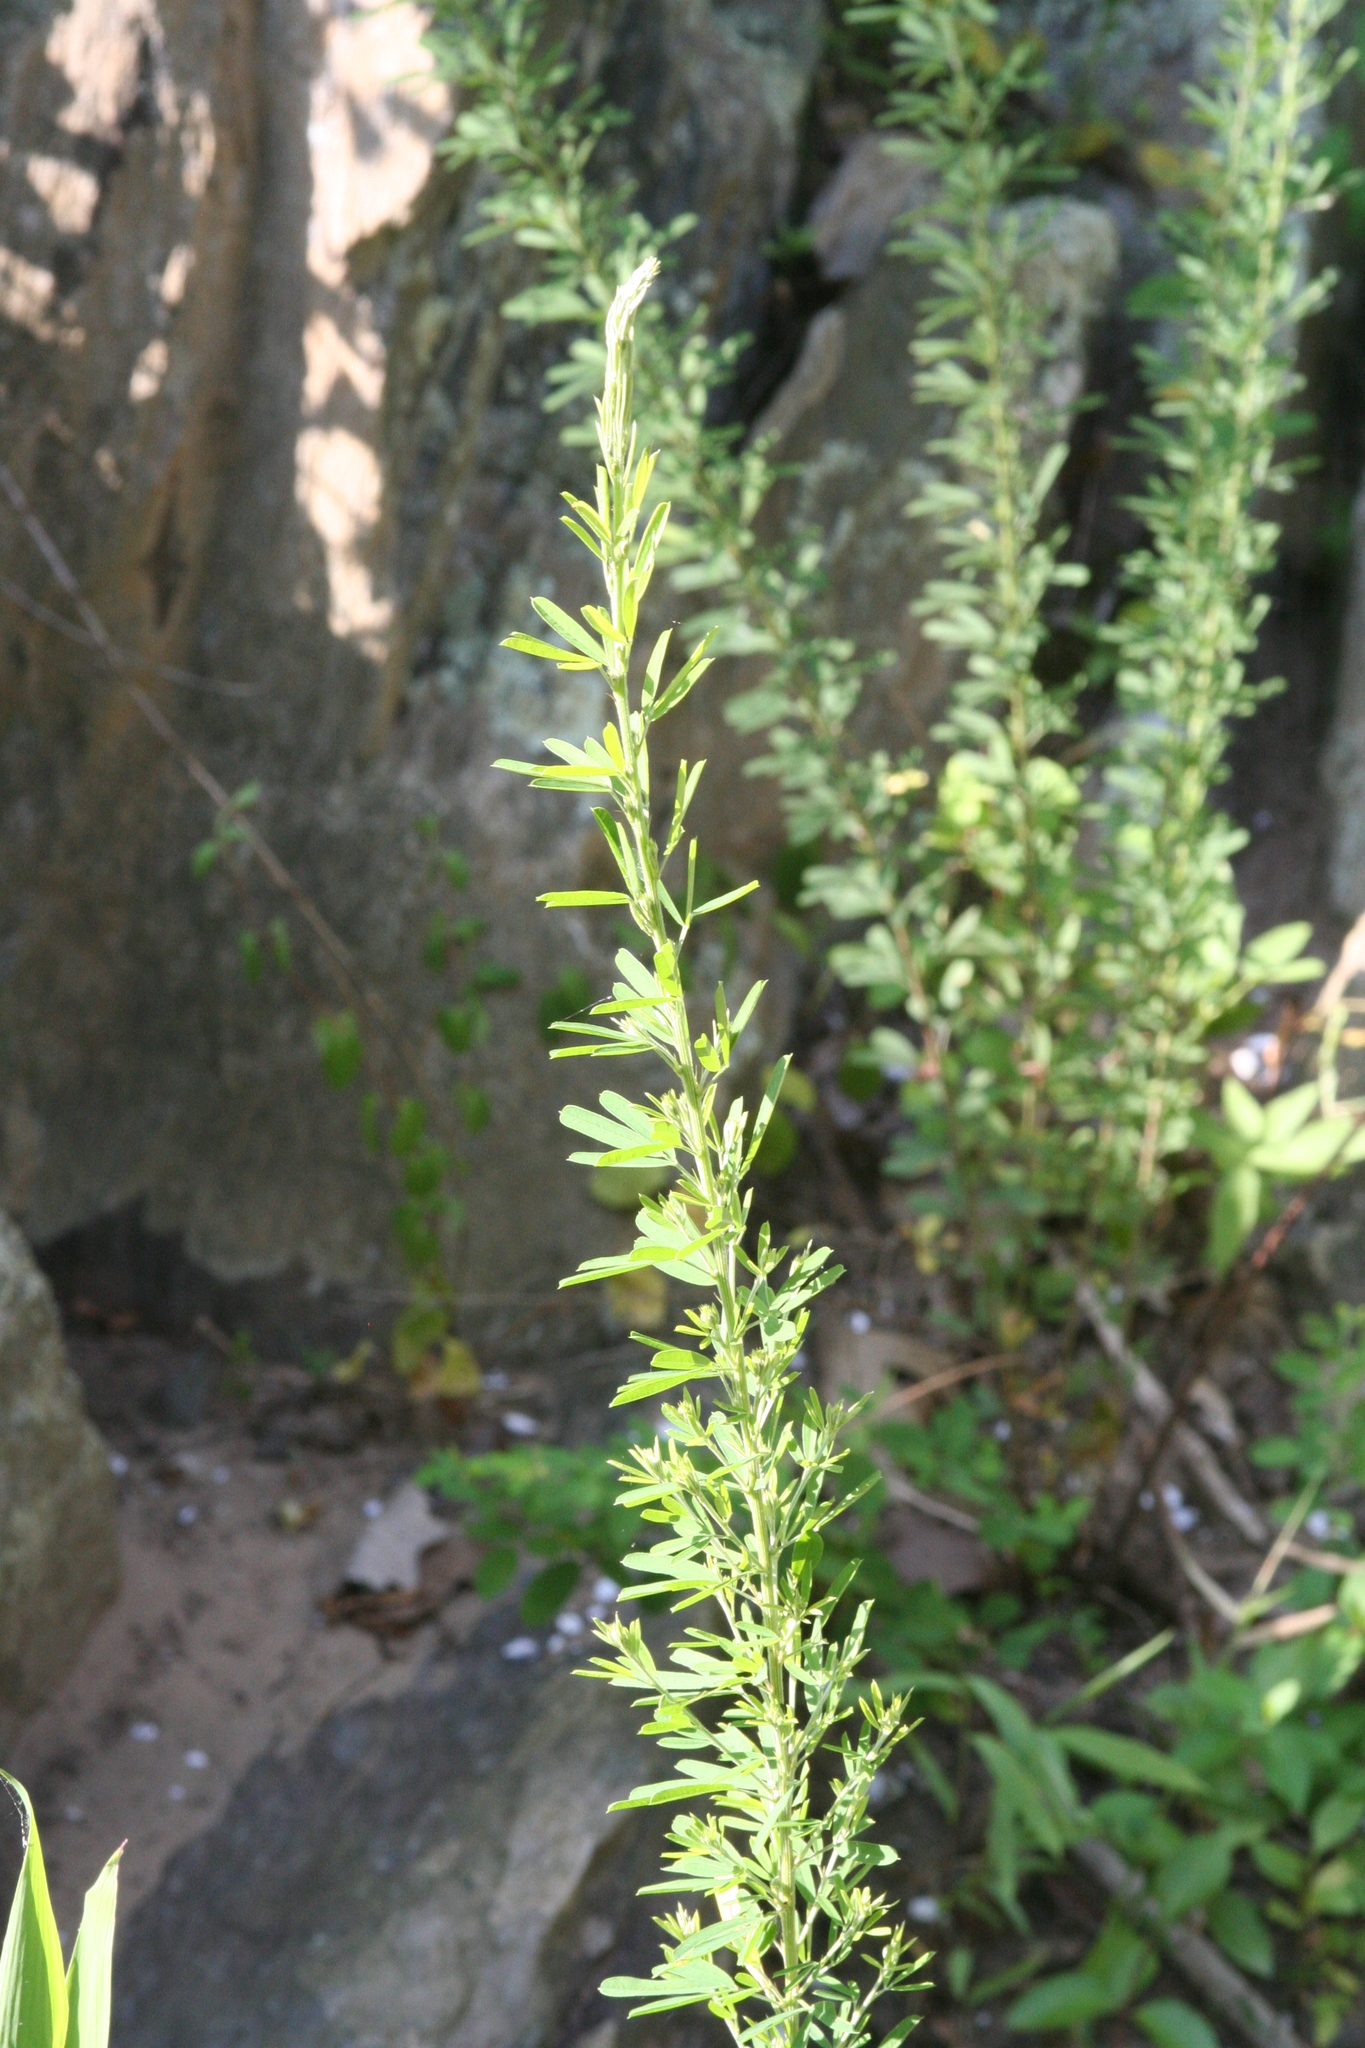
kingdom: Plantae
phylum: Tracheophyta
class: Magnoliopsida
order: Fabales
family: Fabaceae
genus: Lespedeza
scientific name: Lespedeza cuneata
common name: Chinese bush-clover
